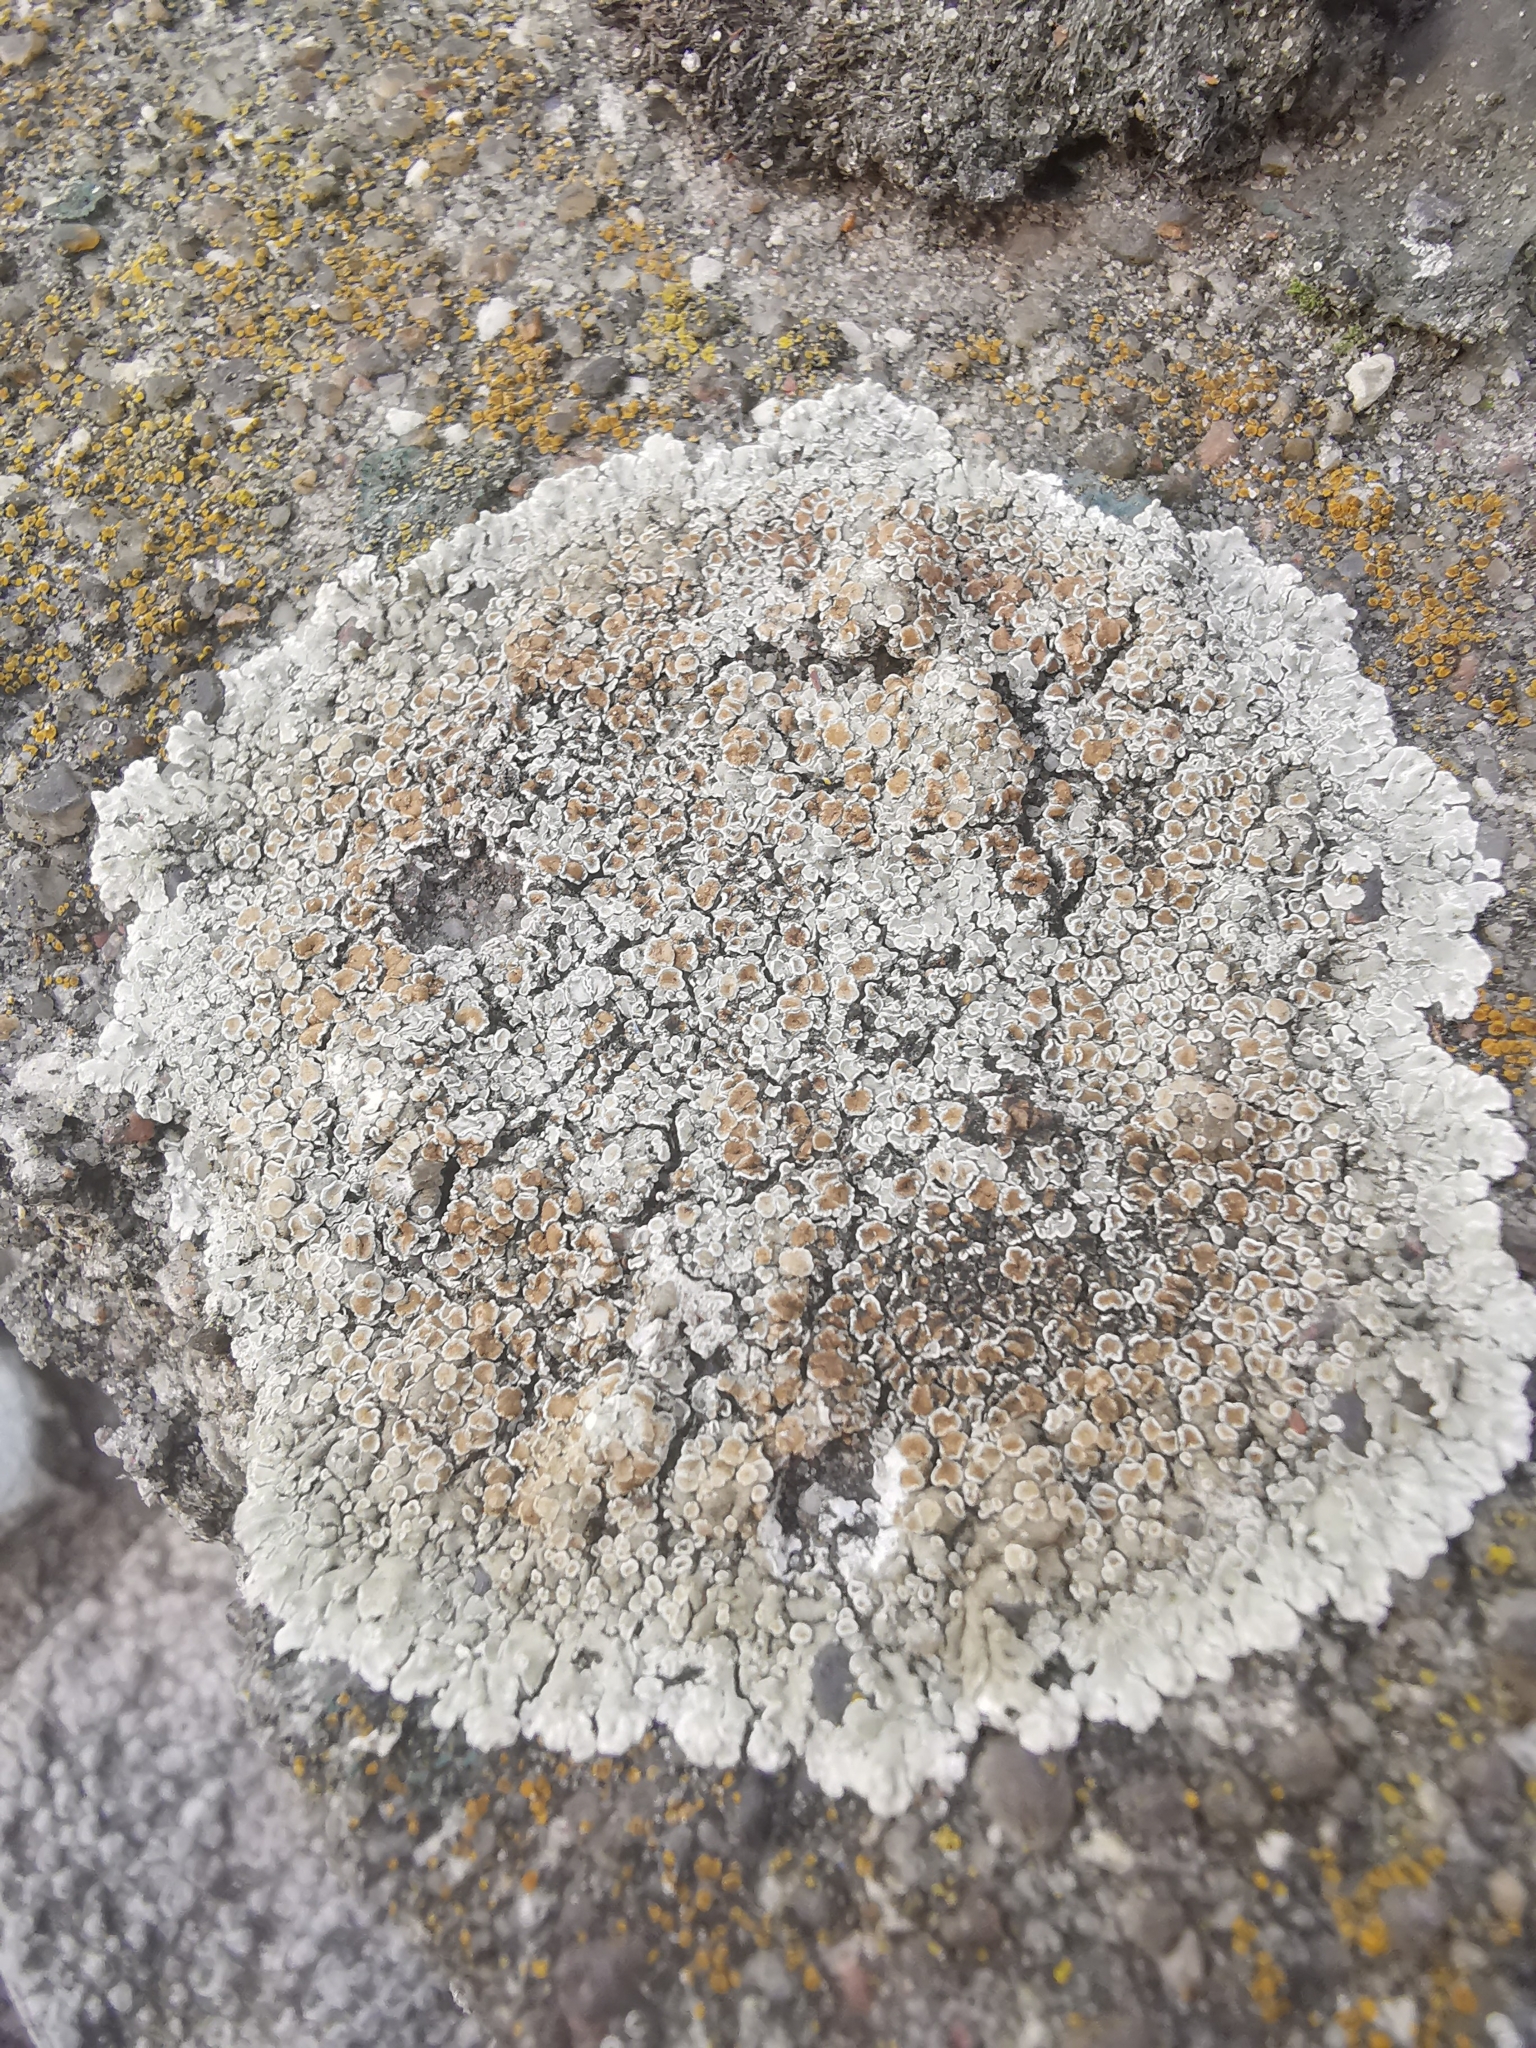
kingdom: Fungi
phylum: Ascomycota
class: Lecanoromycetes
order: Lecanorales
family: Lecanoraceae
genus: Protoparmeliopsis
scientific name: Protoparmeliopsis muralis
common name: Stonewall rim lichen
